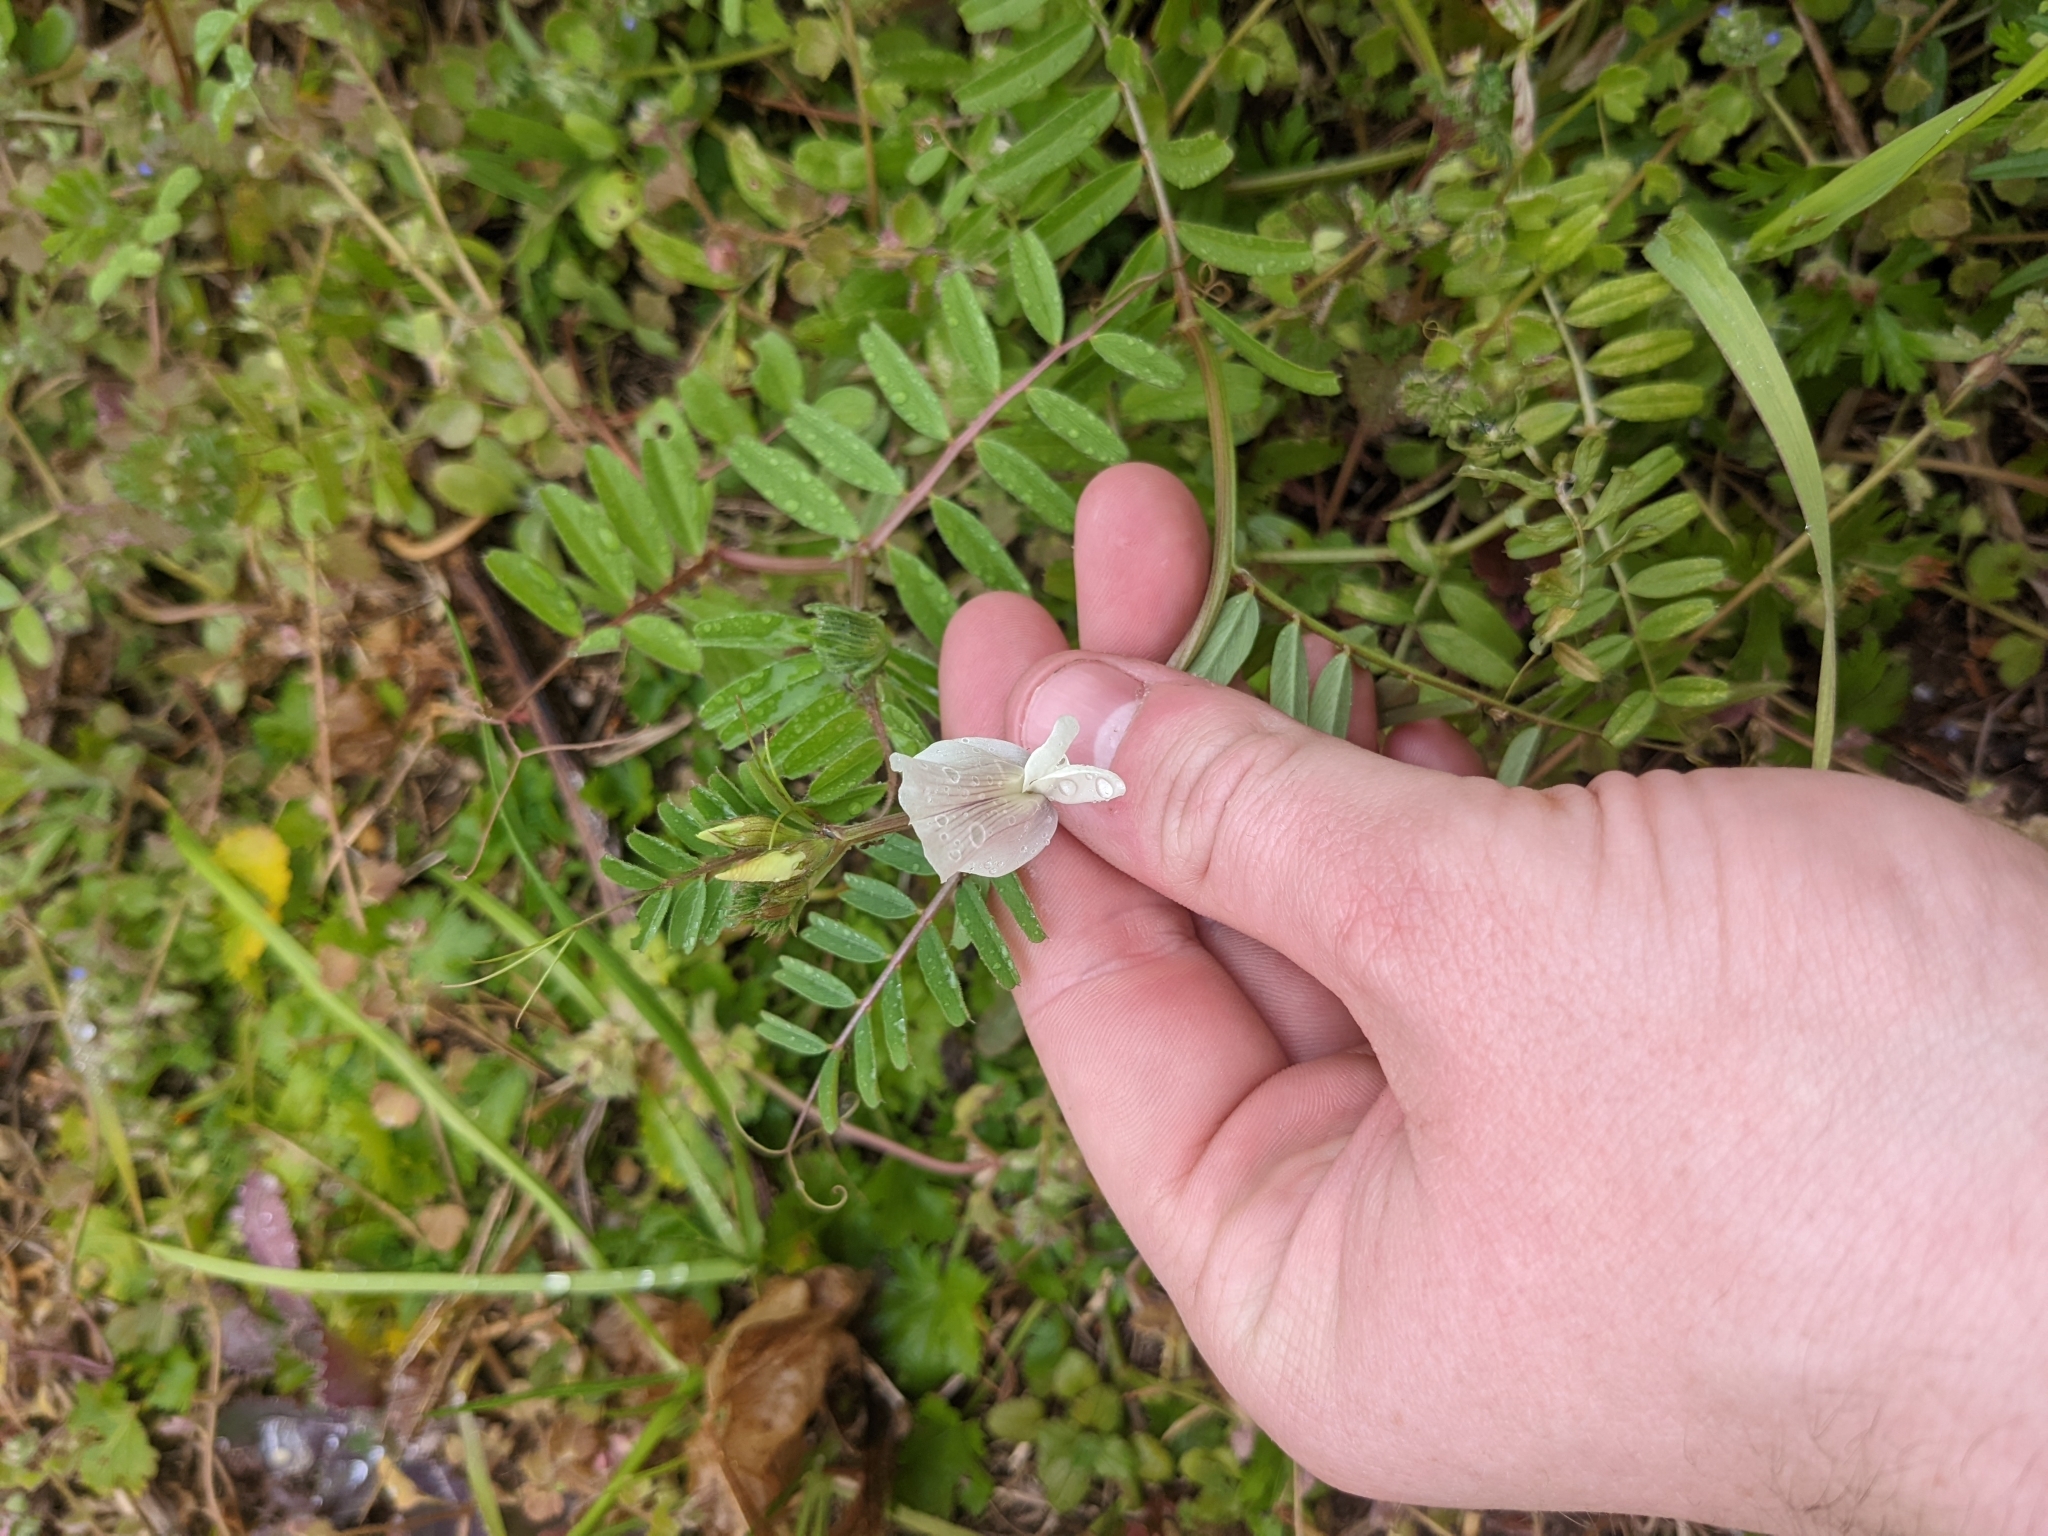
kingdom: Plantae
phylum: Tracheophyta
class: Magnoliopsida
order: Fabales
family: Fabaceae
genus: Vicia
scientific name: Vicia grandiflora
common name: Large yellow vetch
